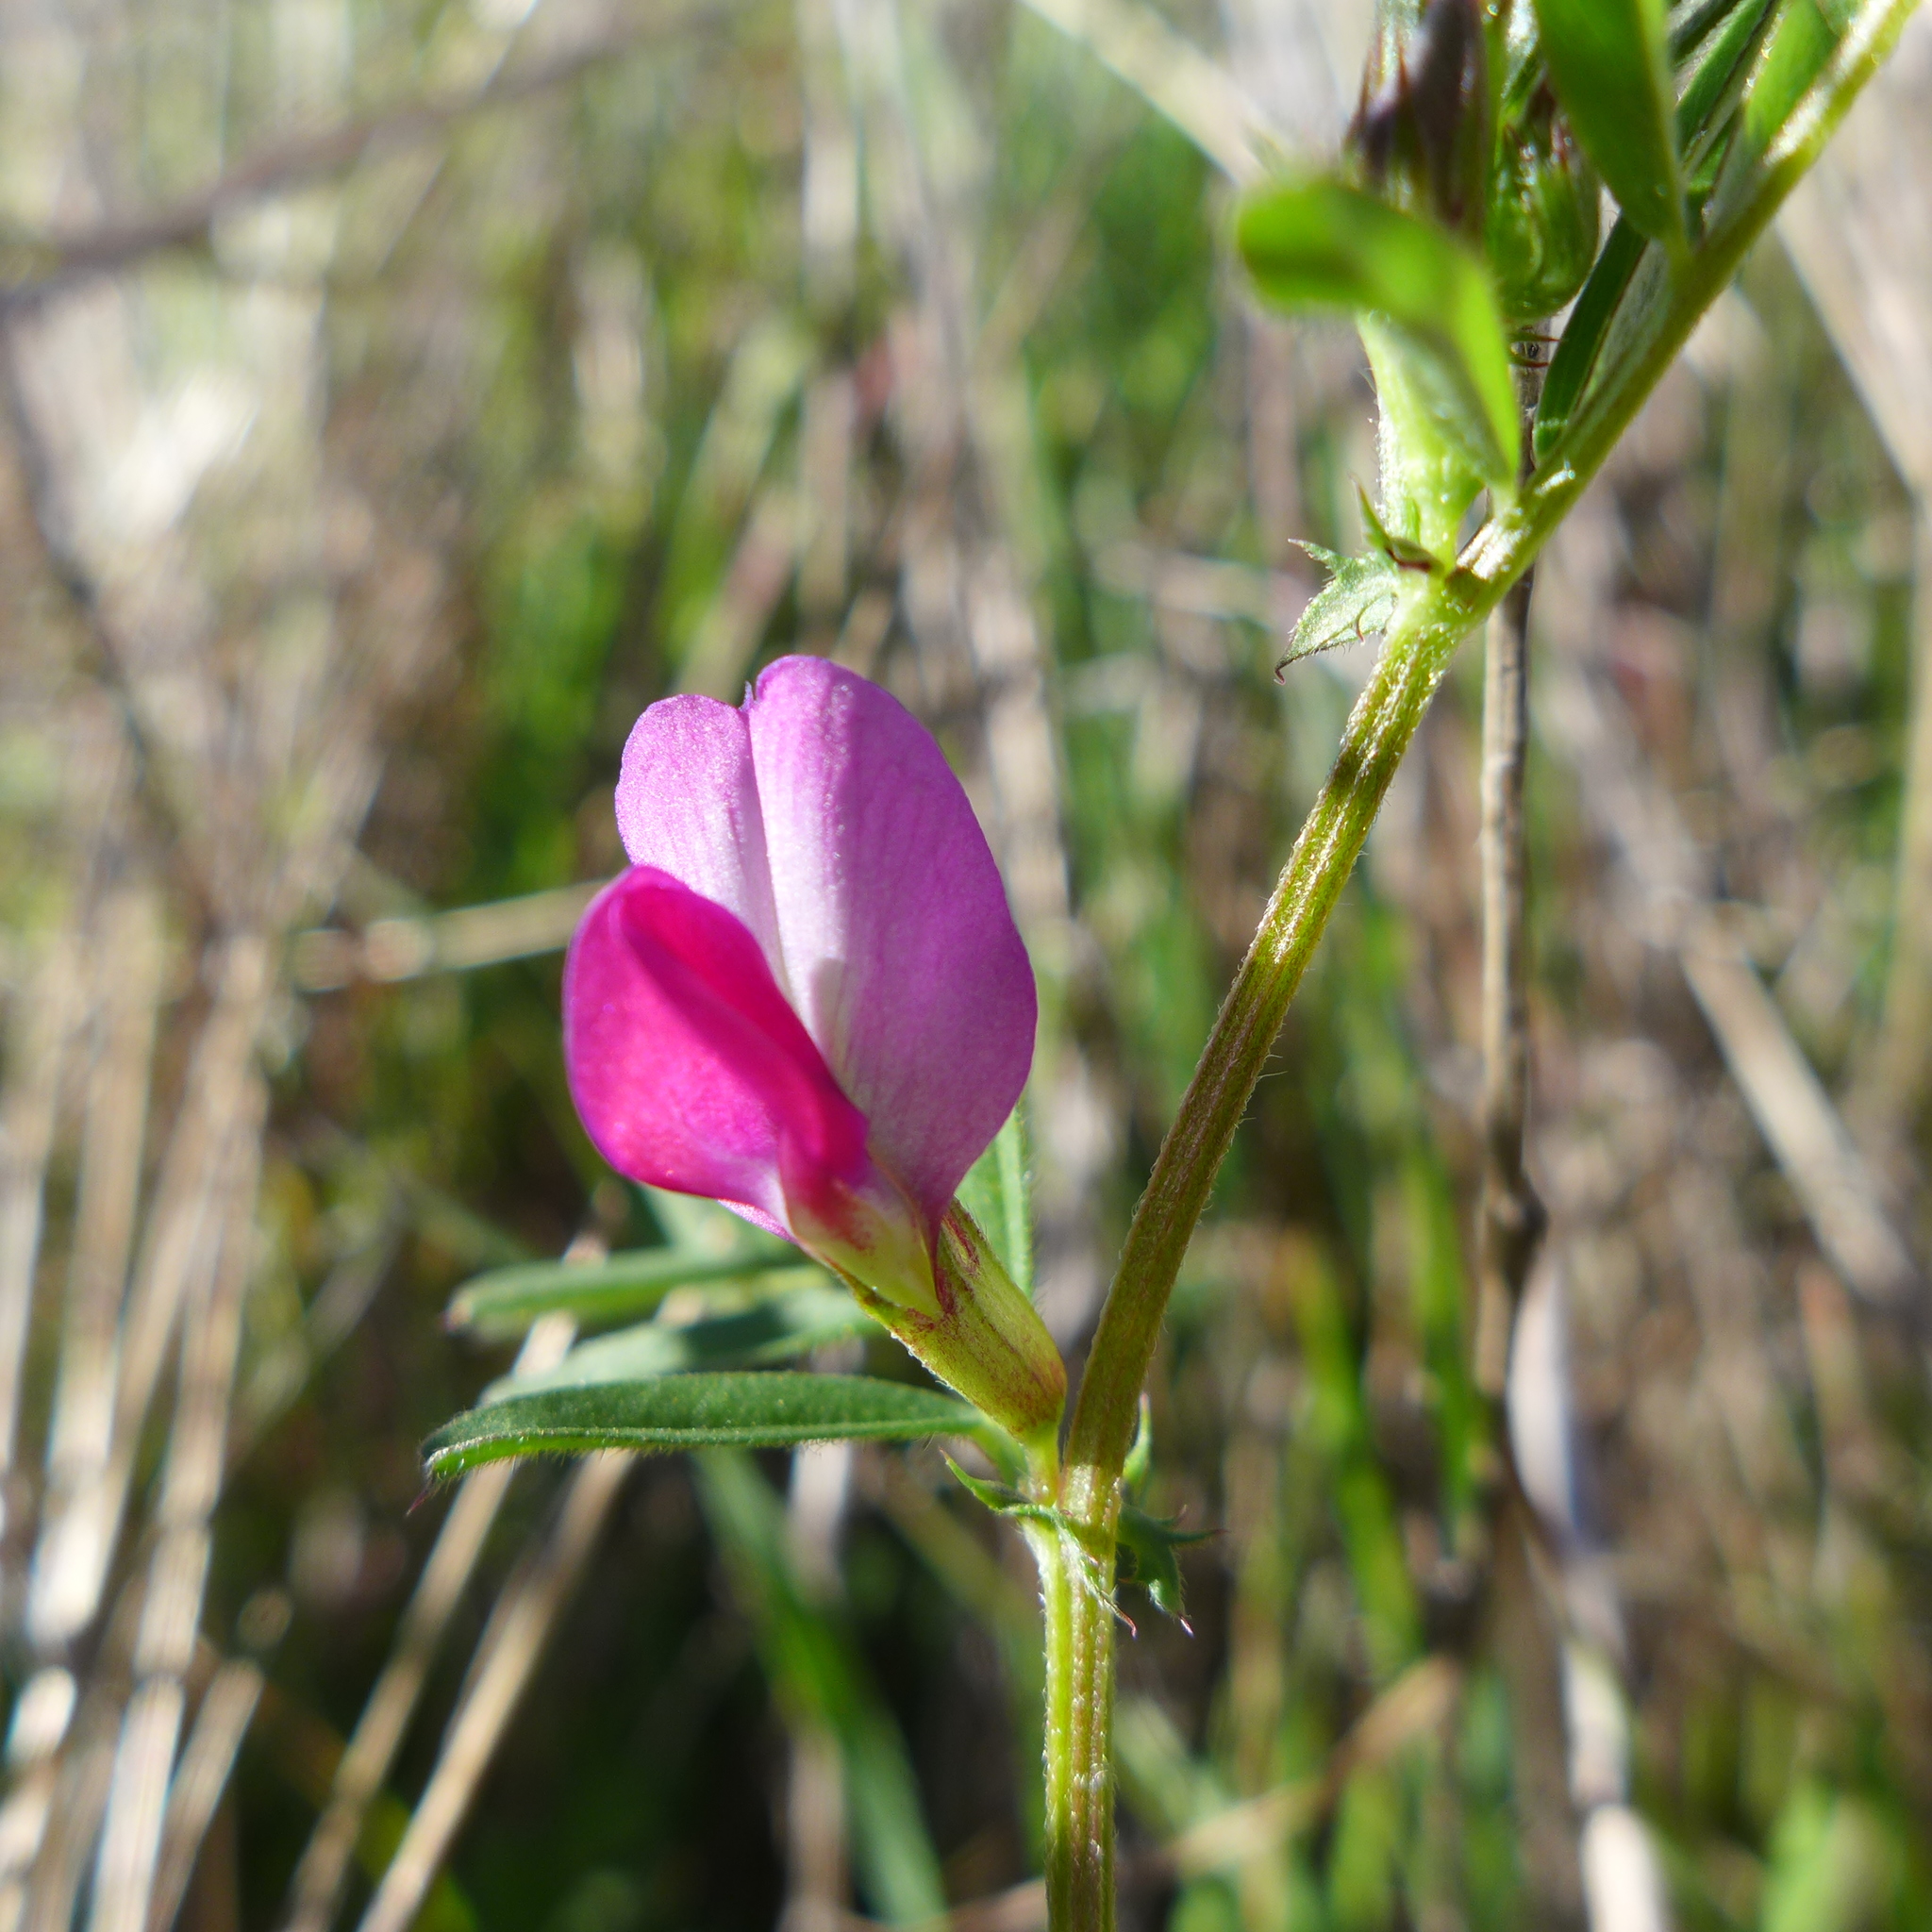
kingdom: Plantae
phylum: Tracheophyta
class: Magnoliopsida
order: Fabales
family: Fabaceae
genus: Vicia
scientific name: Vicia sativa
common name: Garden vetch
